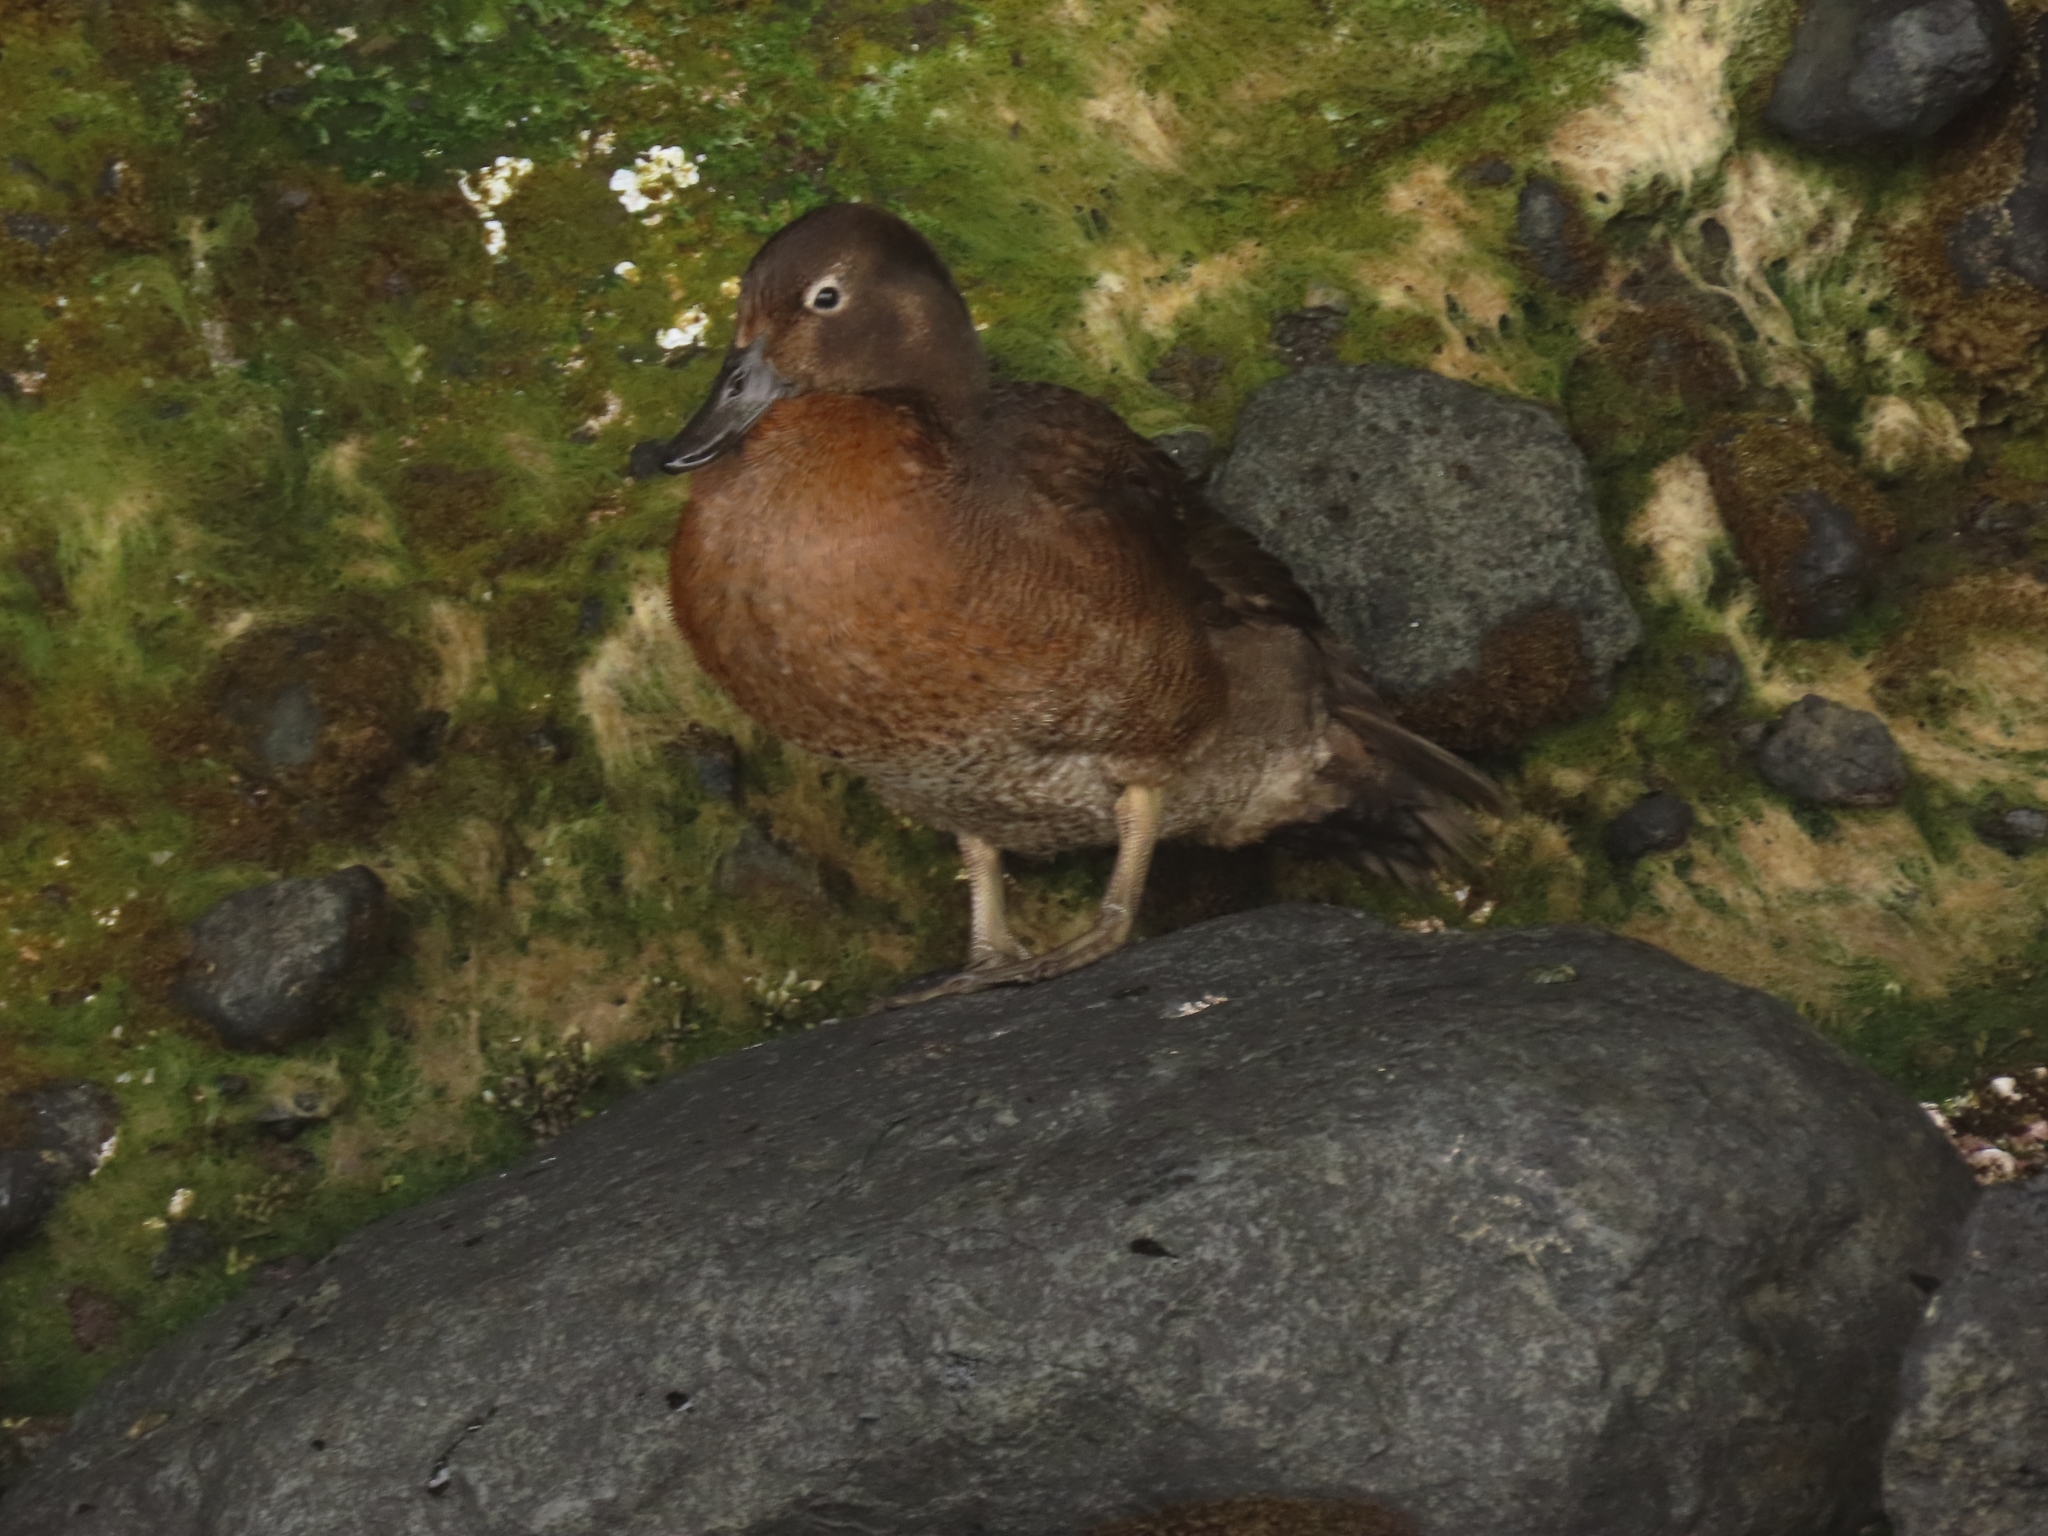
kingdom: Animalia
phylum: Chordata
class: Aves
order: Anseriformes
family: Anatidae
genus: Anas
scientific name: Anas aucklandica
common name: Auckland teal
